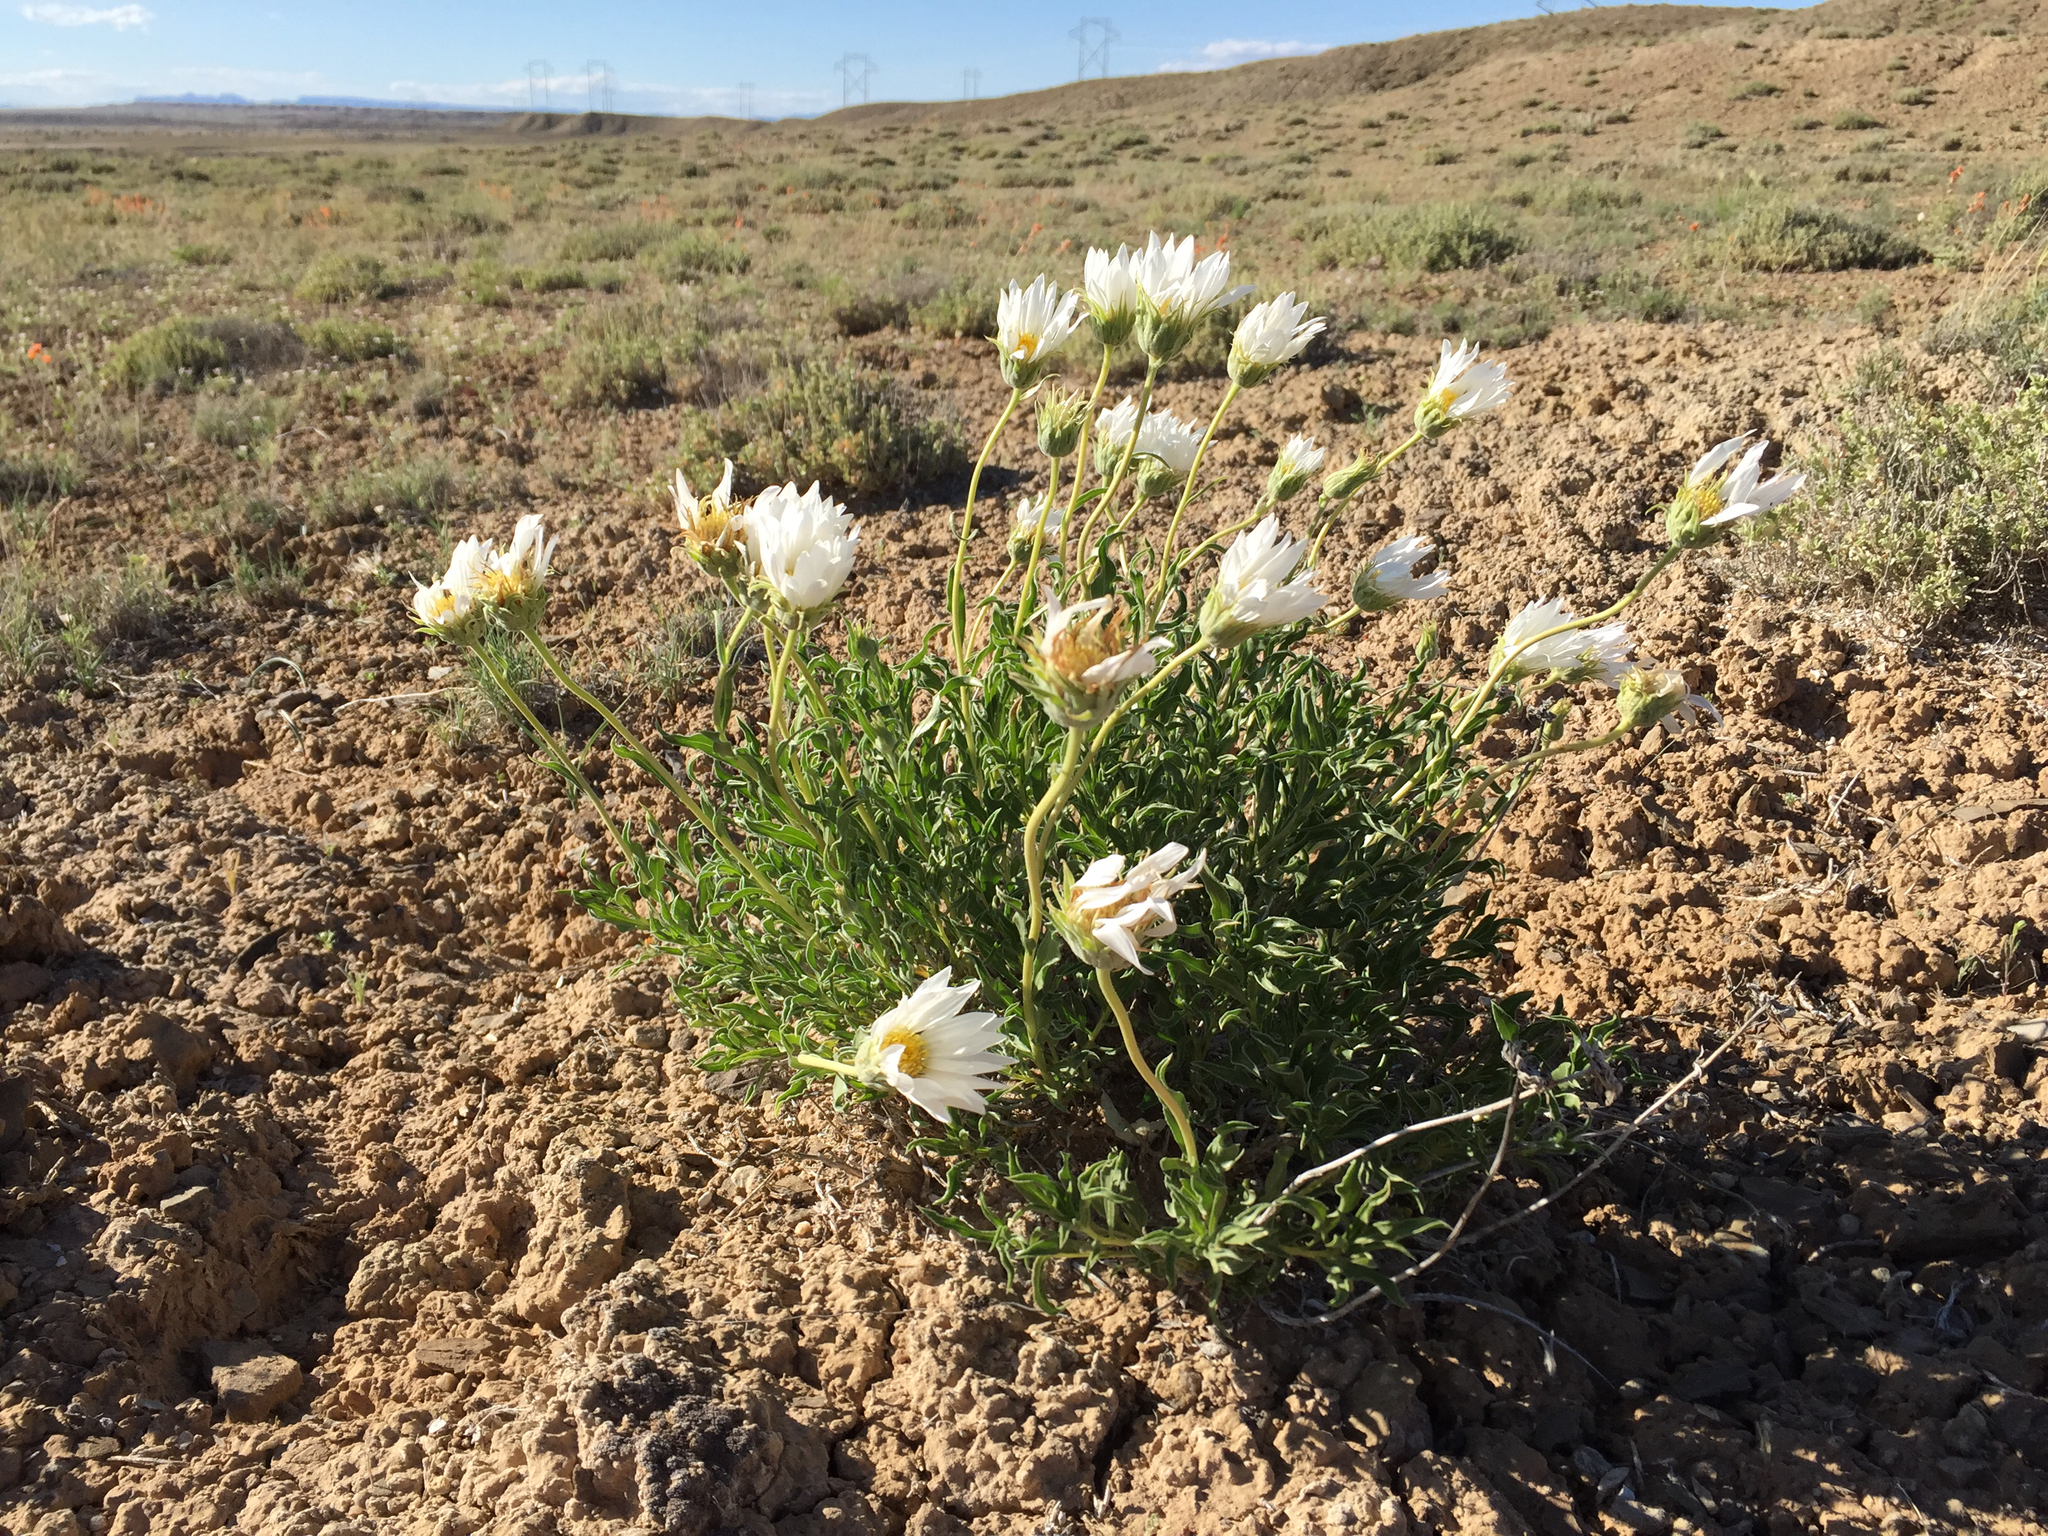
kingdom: Plantae
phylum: Tracheophyta
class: Magnoliopsida
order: Asterales
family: Asteraceae
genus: Xylorhiza
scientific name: Xylorhiza venusta
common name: Cisco woody-aster
